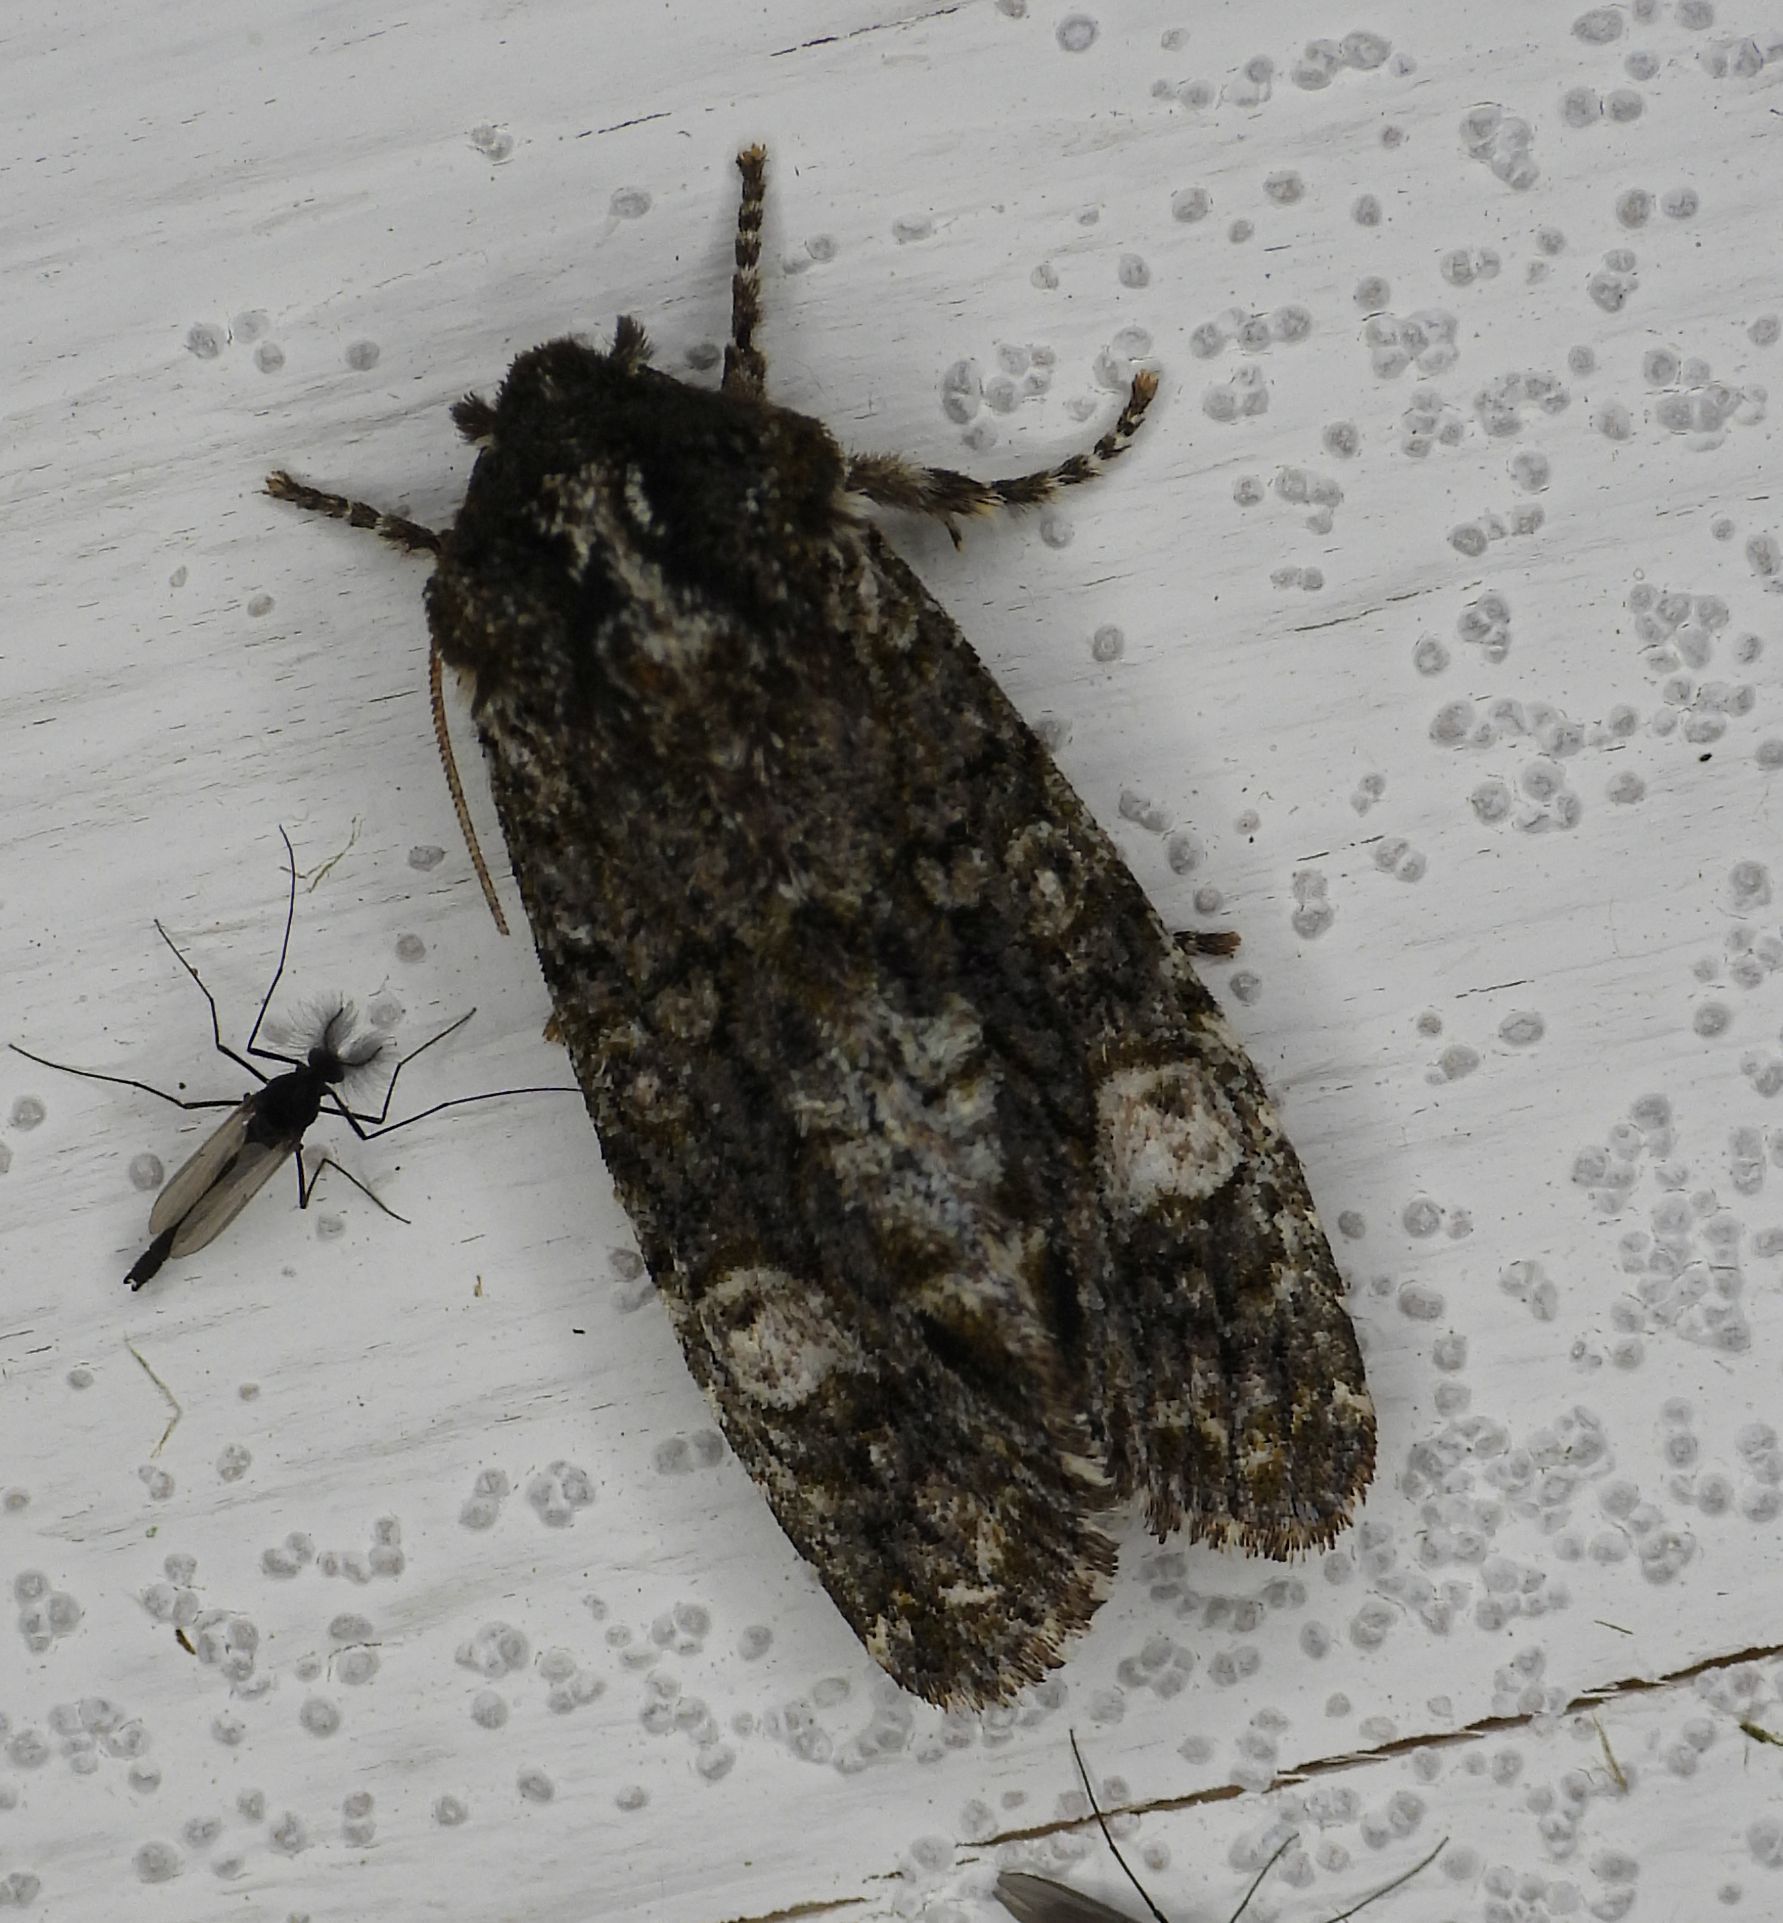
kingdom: Animalia
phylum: Arthropoda
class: Insecta
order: Lepidoptera
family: Noctuidae
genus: Psaphida
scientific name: Psaphida grotei
